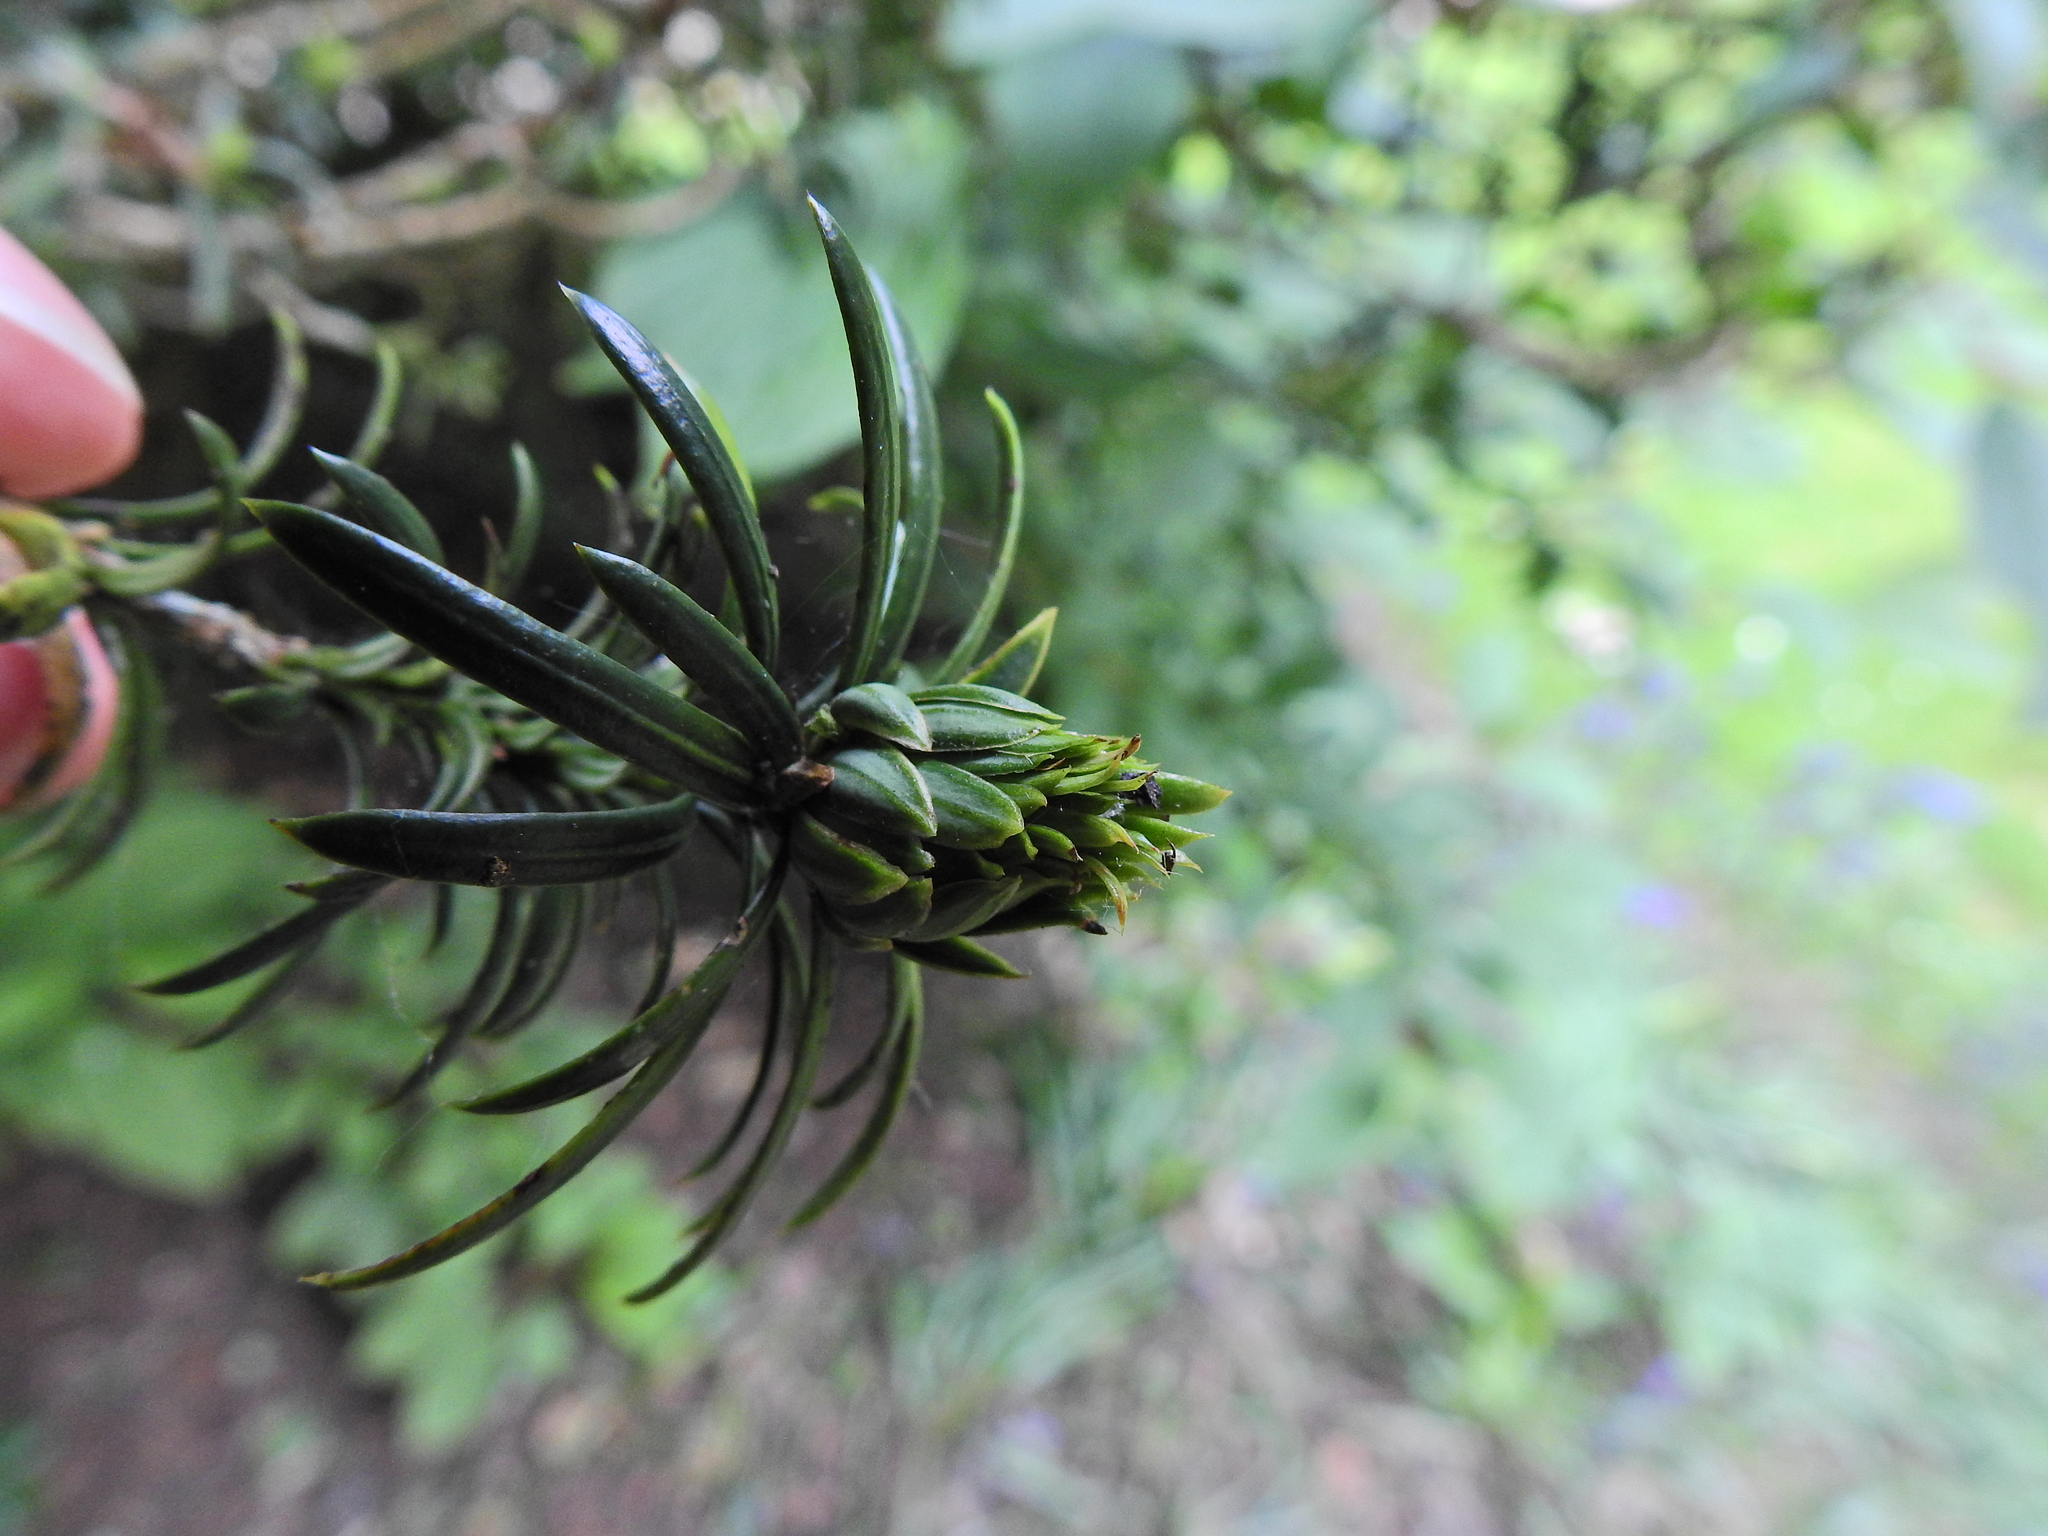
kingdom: Animalia
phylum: Arthropoda
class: Insecta
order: Diptera
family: Cecidomyiidae
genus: Taxomyia
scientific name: Taxomyia taxi
